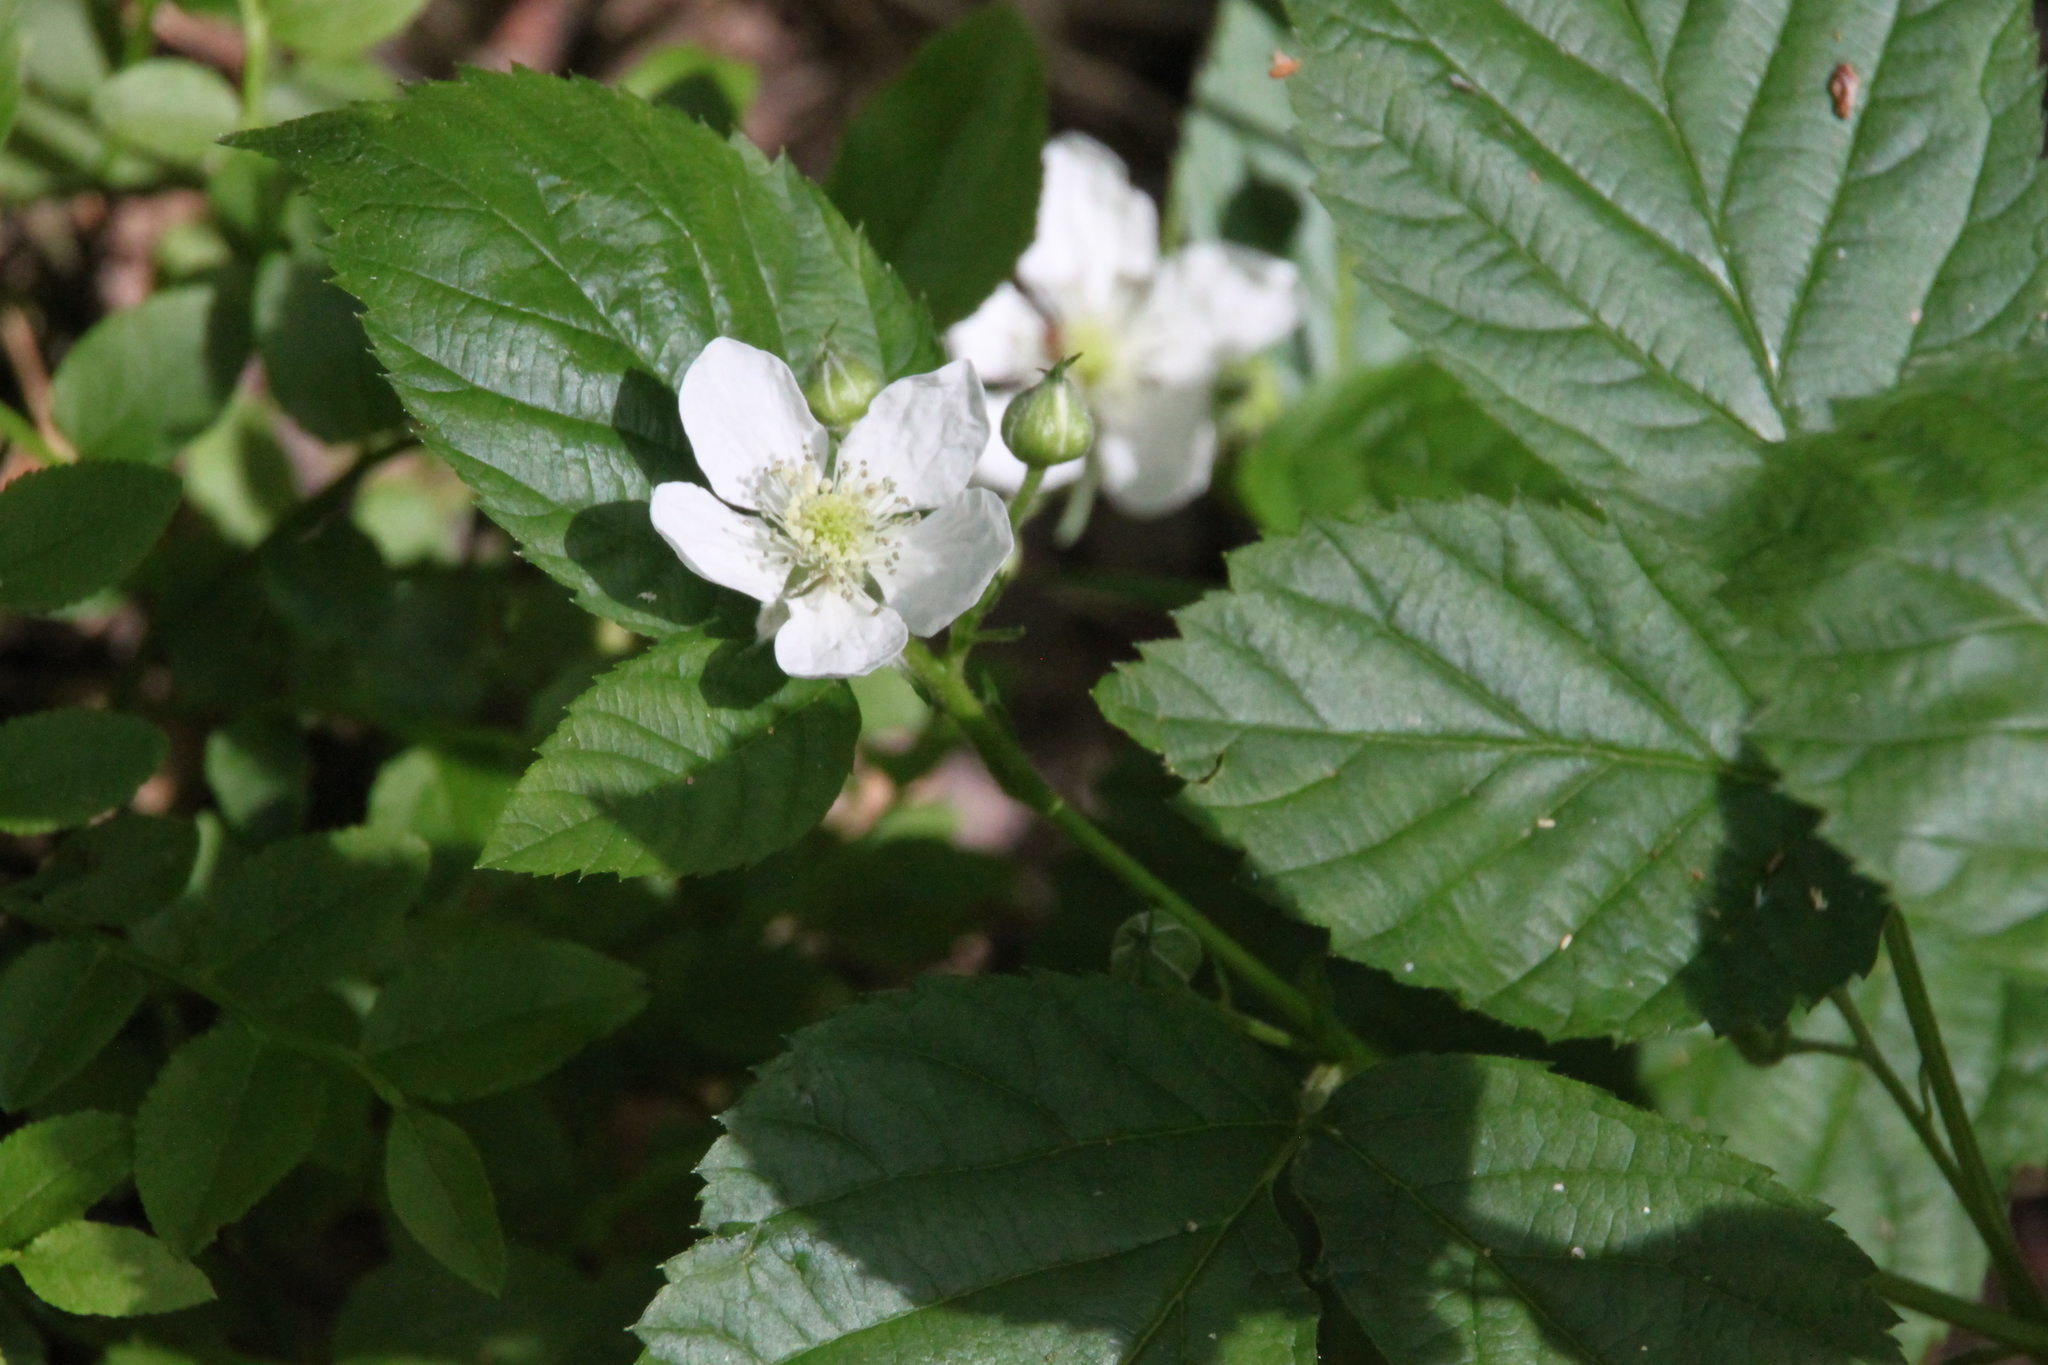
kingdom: Plantae
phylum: Tracheophyta
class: Magnoliopsida
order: Rosales
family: Rosaceae
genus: Rubus
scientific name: Rubus polonicus
